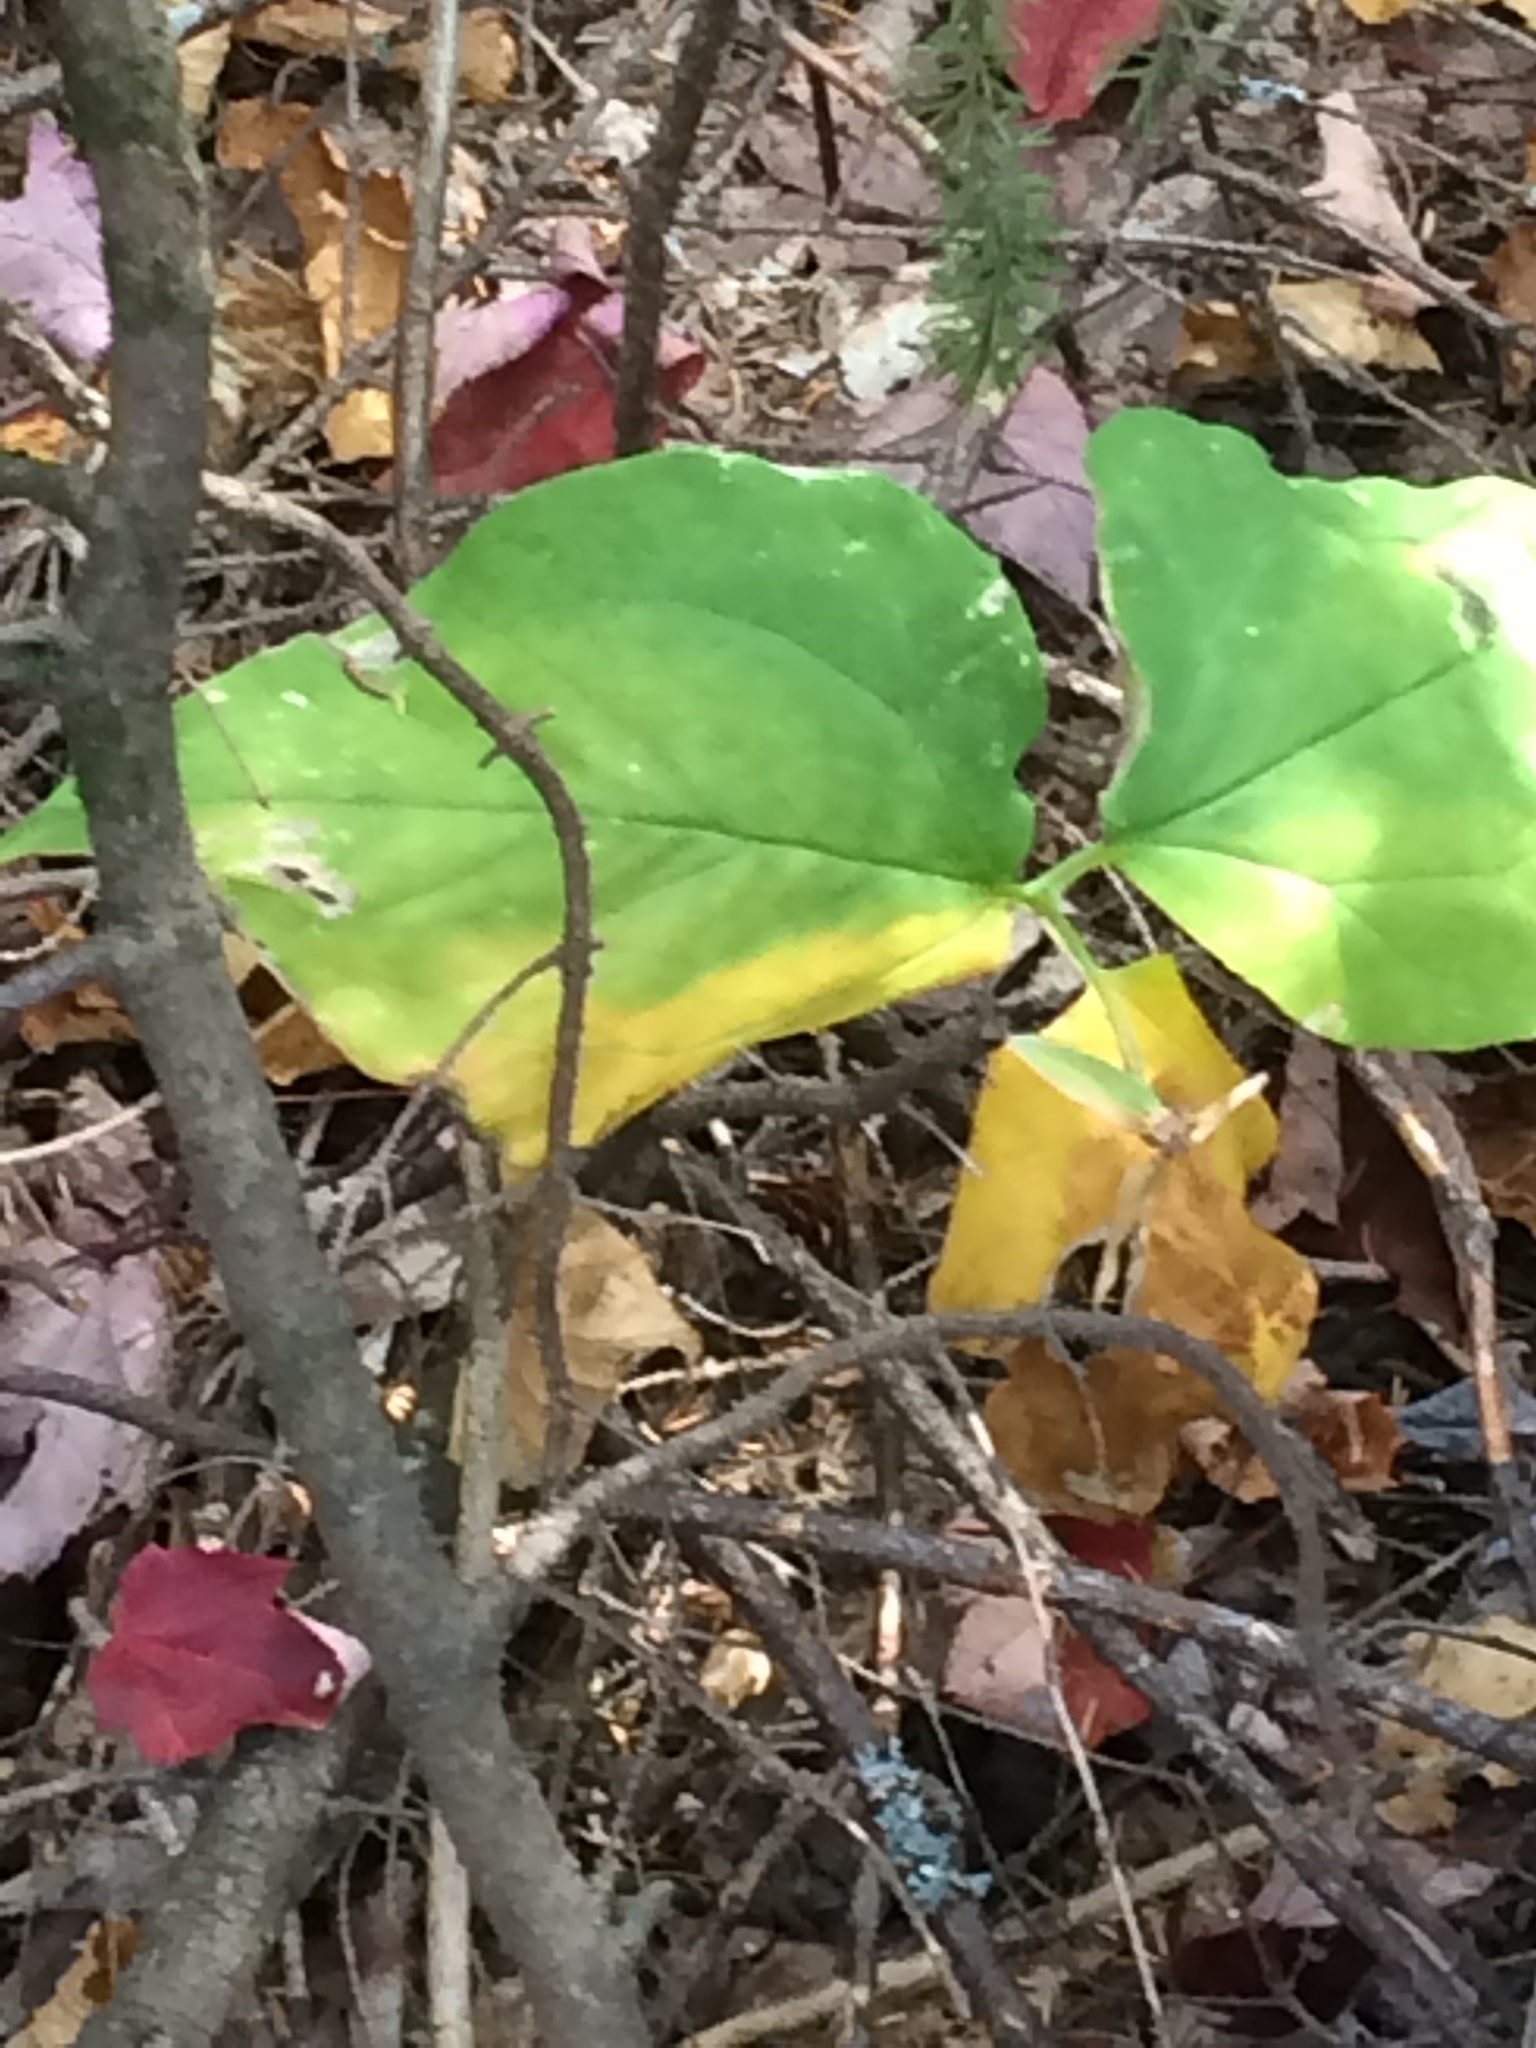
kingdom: Plantae
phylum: Tracheophyta
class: Liliopsida
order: Liliales
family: Melanthiaceae
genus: Trillium
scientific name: Trillium undulatum
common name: Paint trillium
